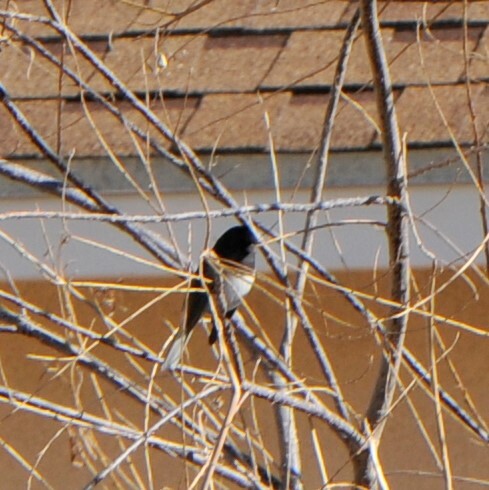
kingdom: Animalia
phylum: Chordata
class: Aves
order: Passeriformes
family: Passerellidae
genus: Junco
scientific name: Junco hyemalis
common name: Dark-eyed junco
